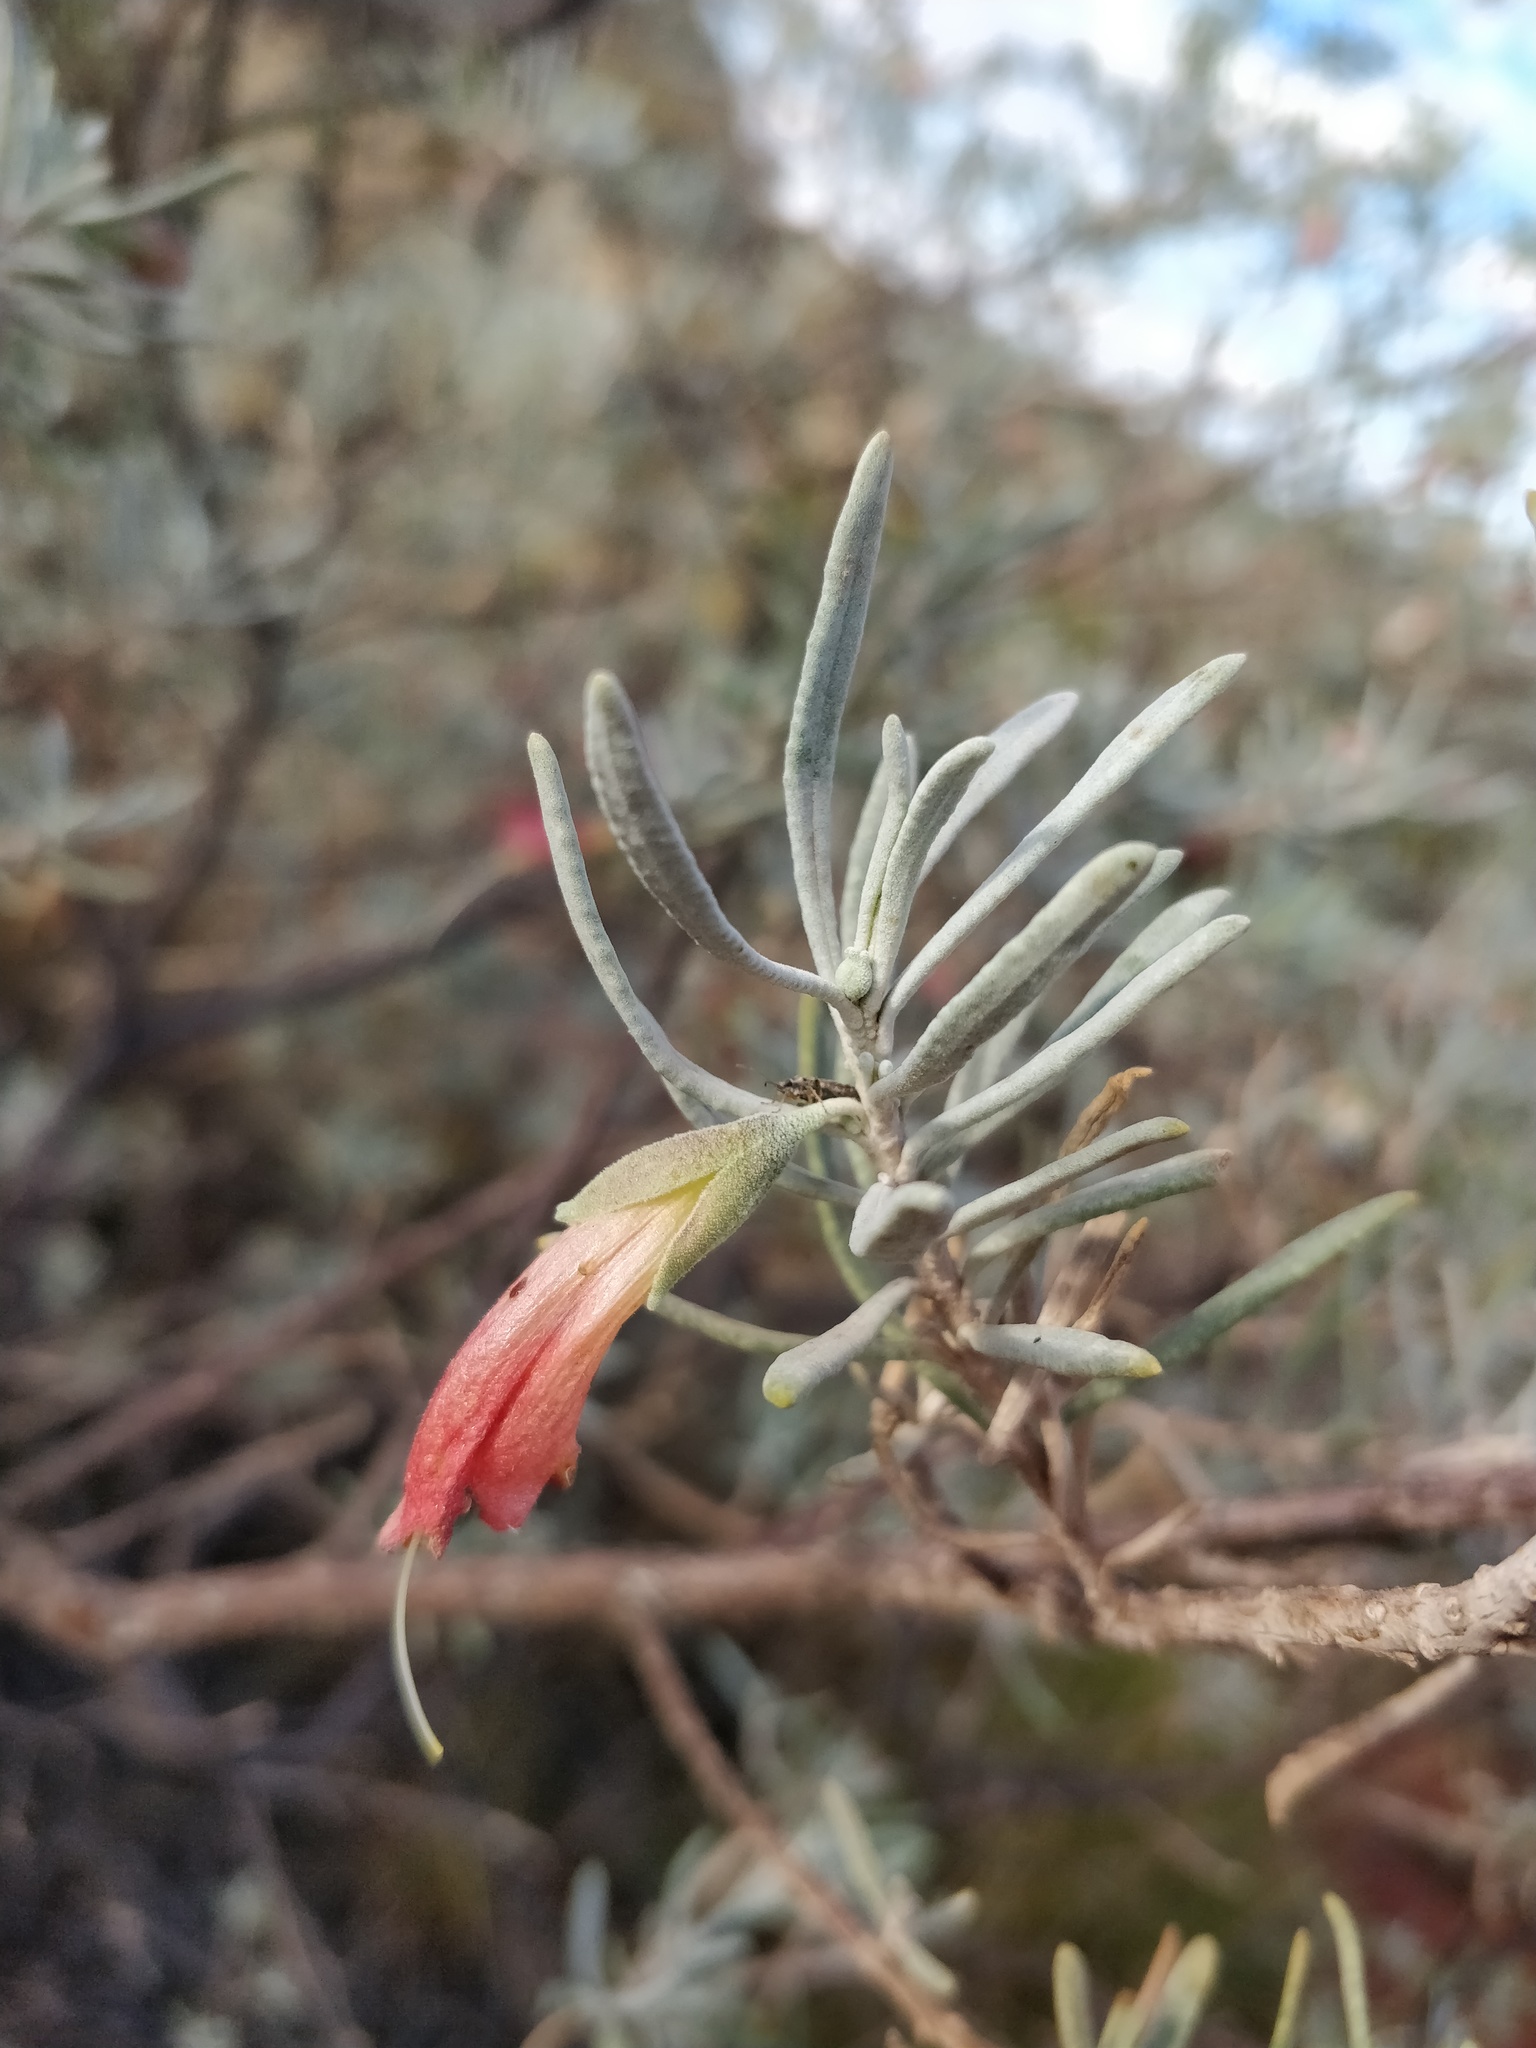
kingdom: Plantae
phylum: Tracheophyta
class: Magnoliopsida
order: Lamiales
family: Scrophulariaceae
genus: Eremophila
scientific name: Eremophila latrobei
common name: Crimson turkeybush
